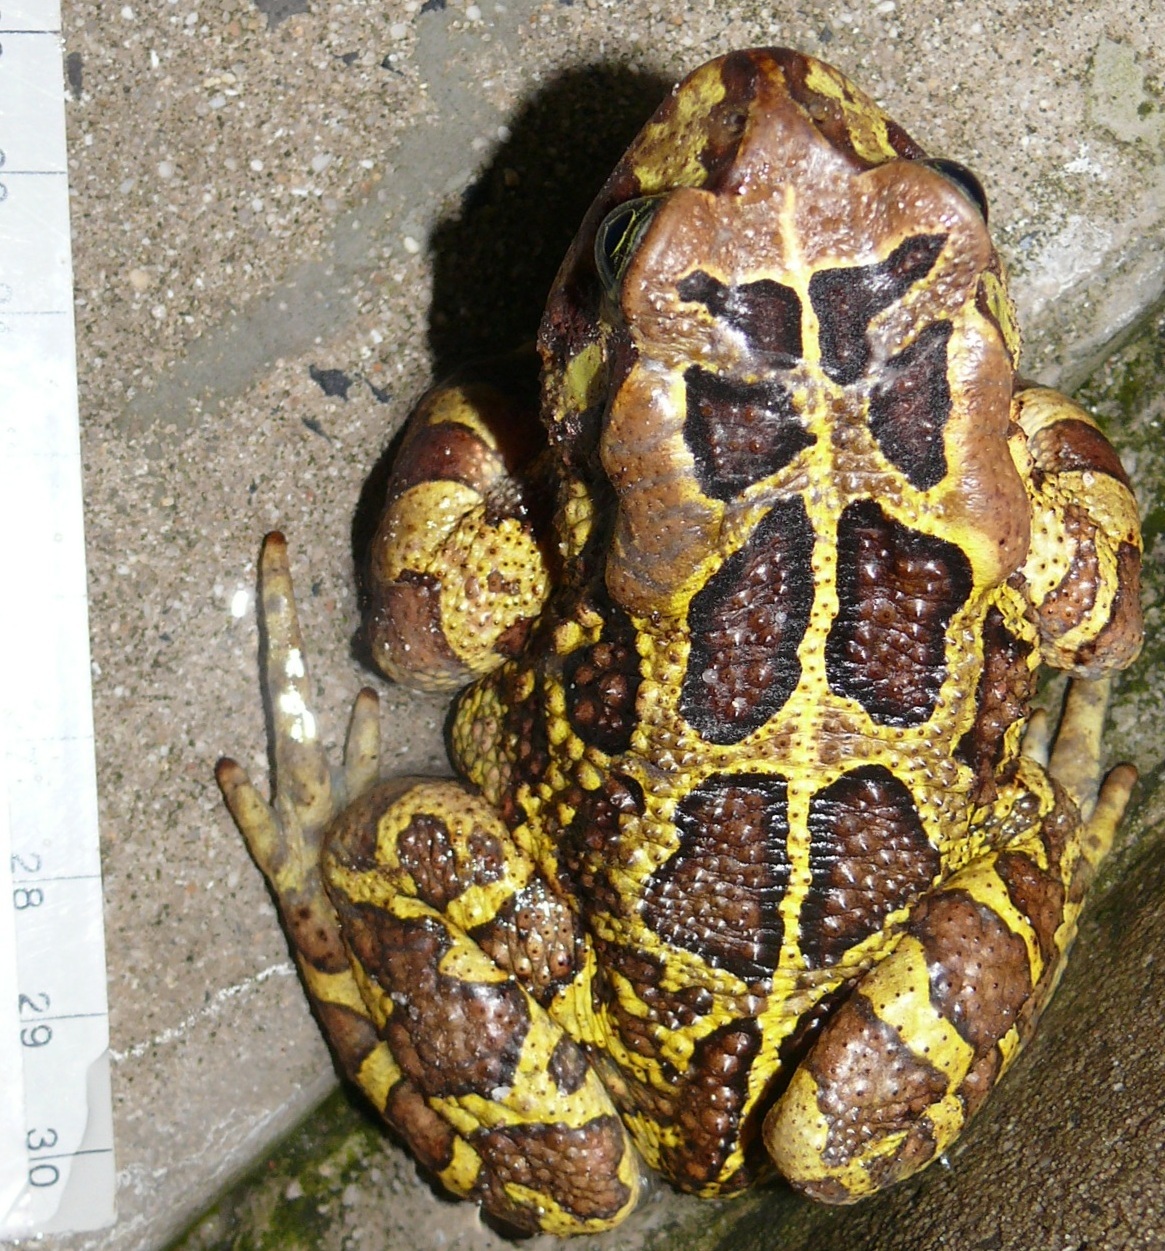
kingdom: Animalia
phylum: Chordata
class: Amphibia
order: Anura
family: Bufonidae
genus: Sclerophrys
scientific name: Sclerophrys pantherina
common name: Panther toad
